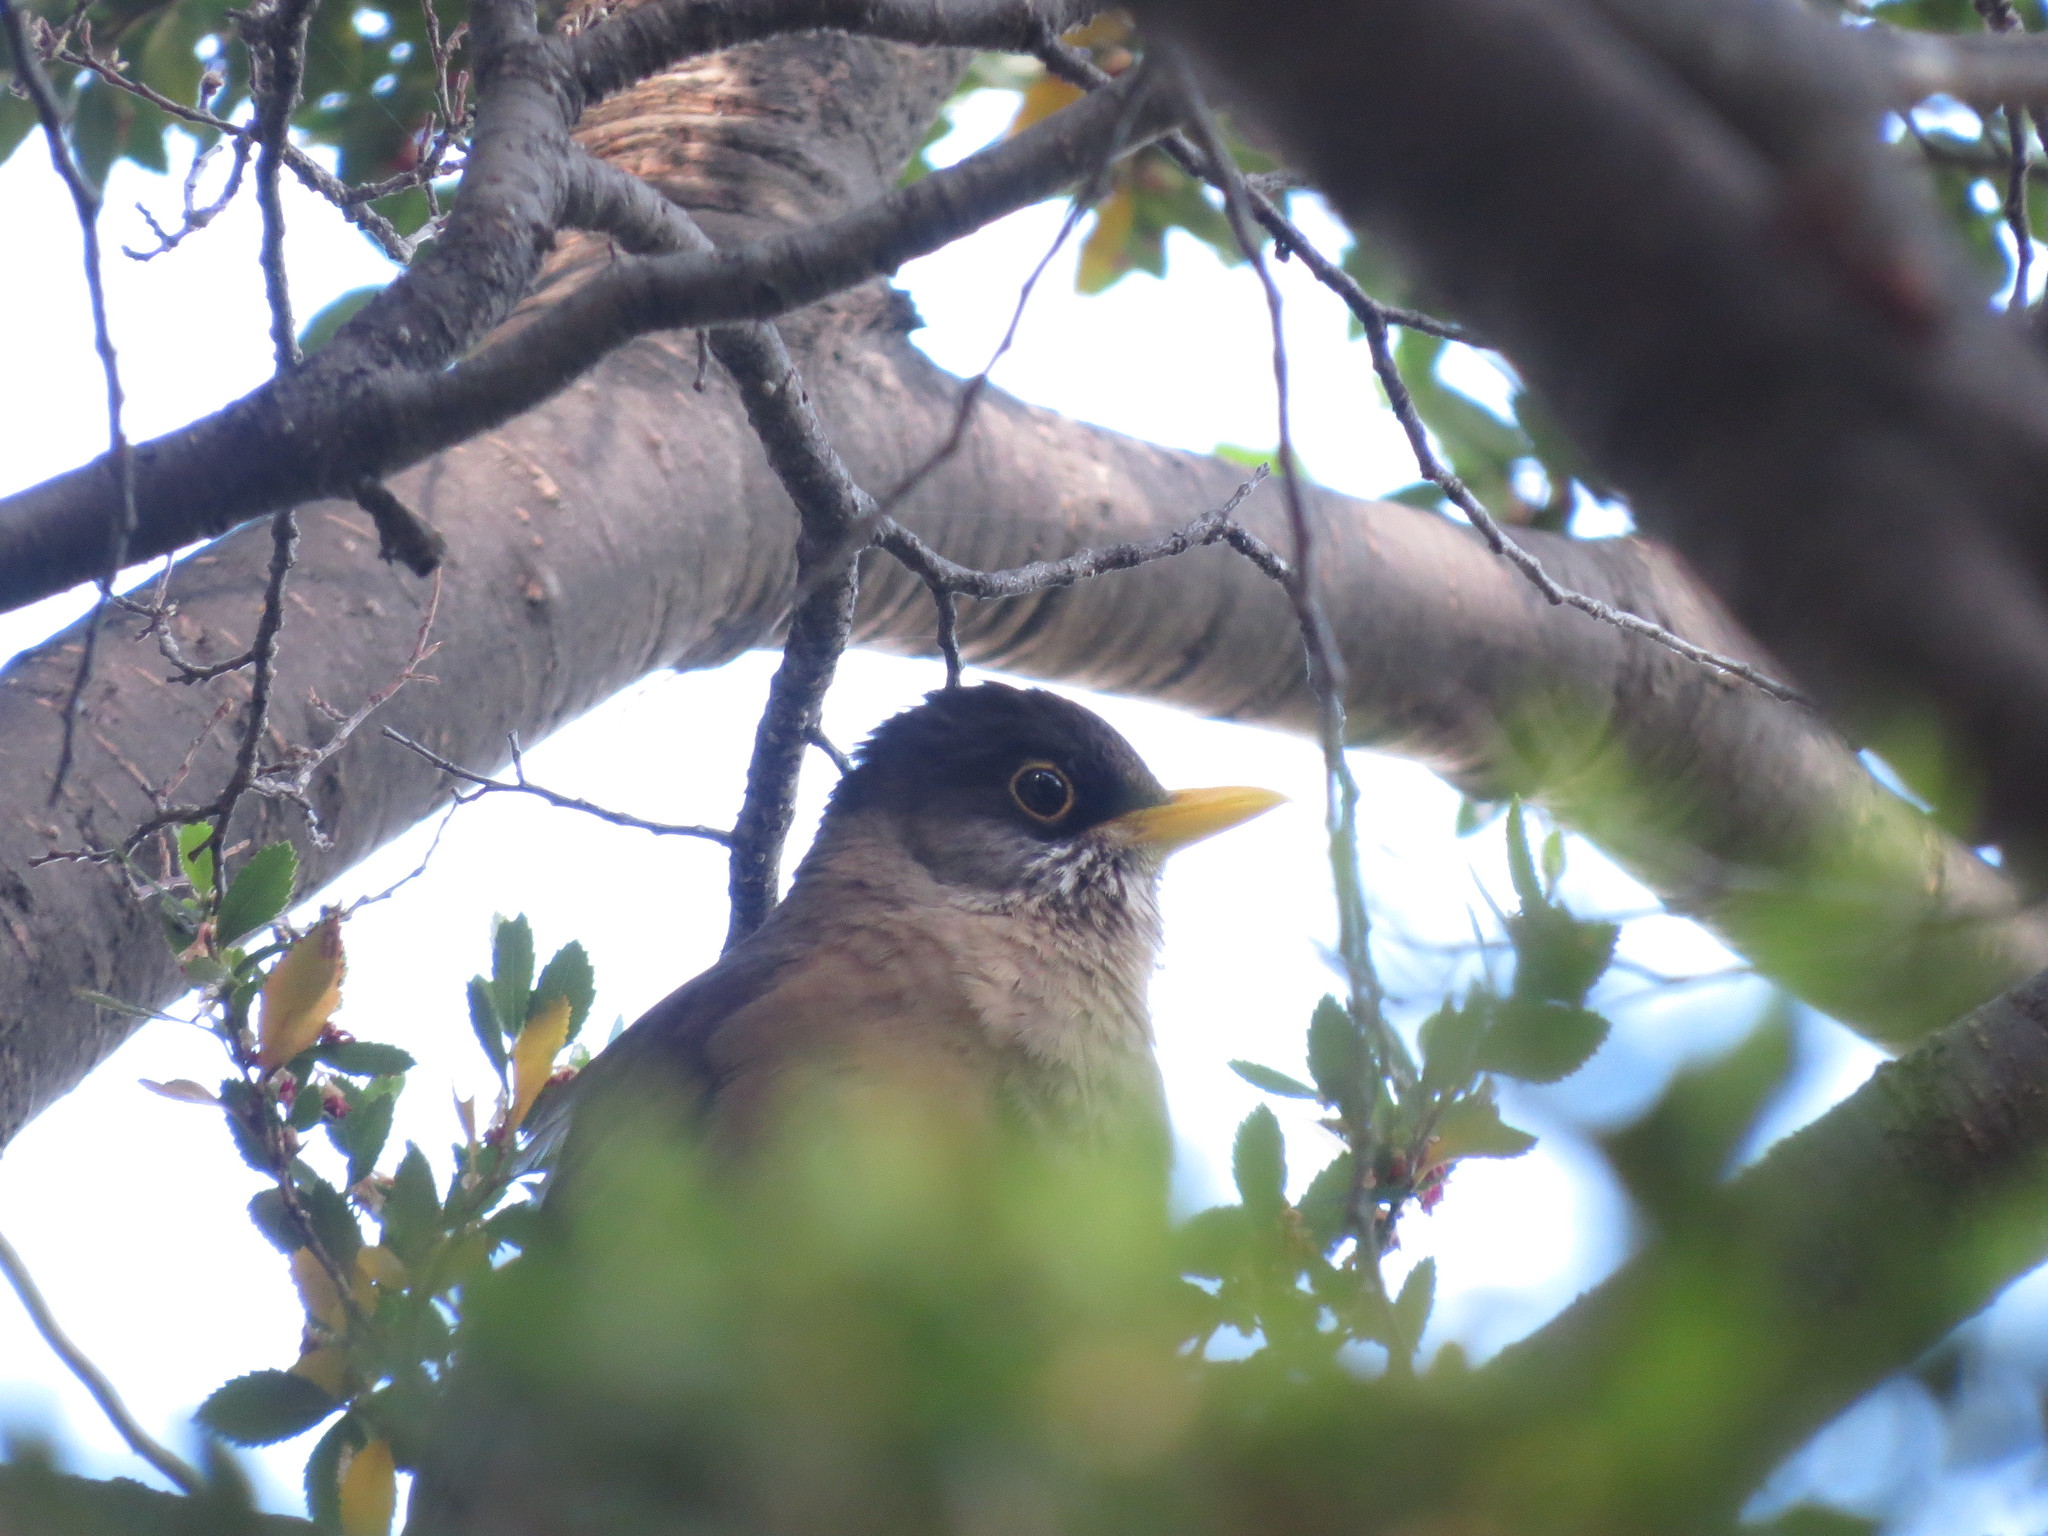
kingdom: Animalia
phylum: Chordata
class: Aves
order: Passeriformes
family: Turdidae
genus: Turdus
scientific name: Turdus falcklandii
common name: Austral thrush
